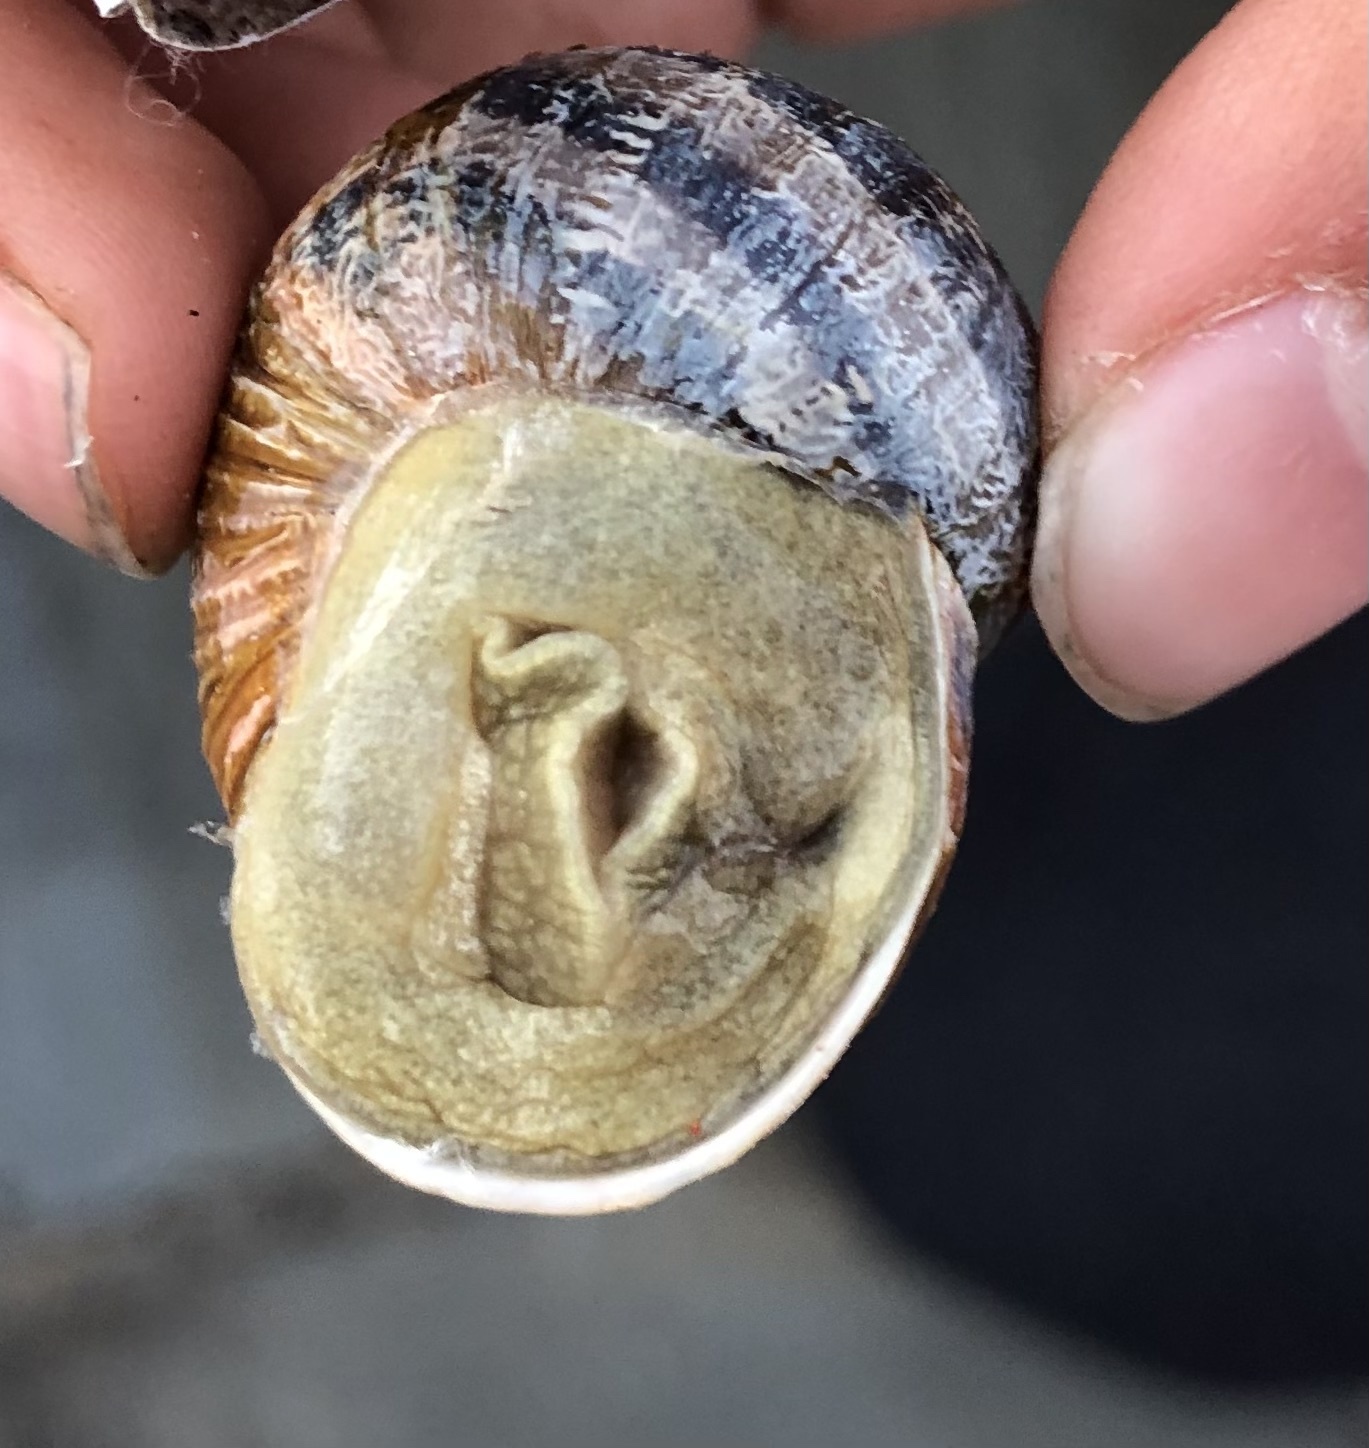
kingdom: Animalia
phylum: Mollusca
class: Gastropoda
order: Stylommatophora
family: Helicidae
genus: Cornu
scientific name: Cornu aspersum
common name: Brown garden snail
